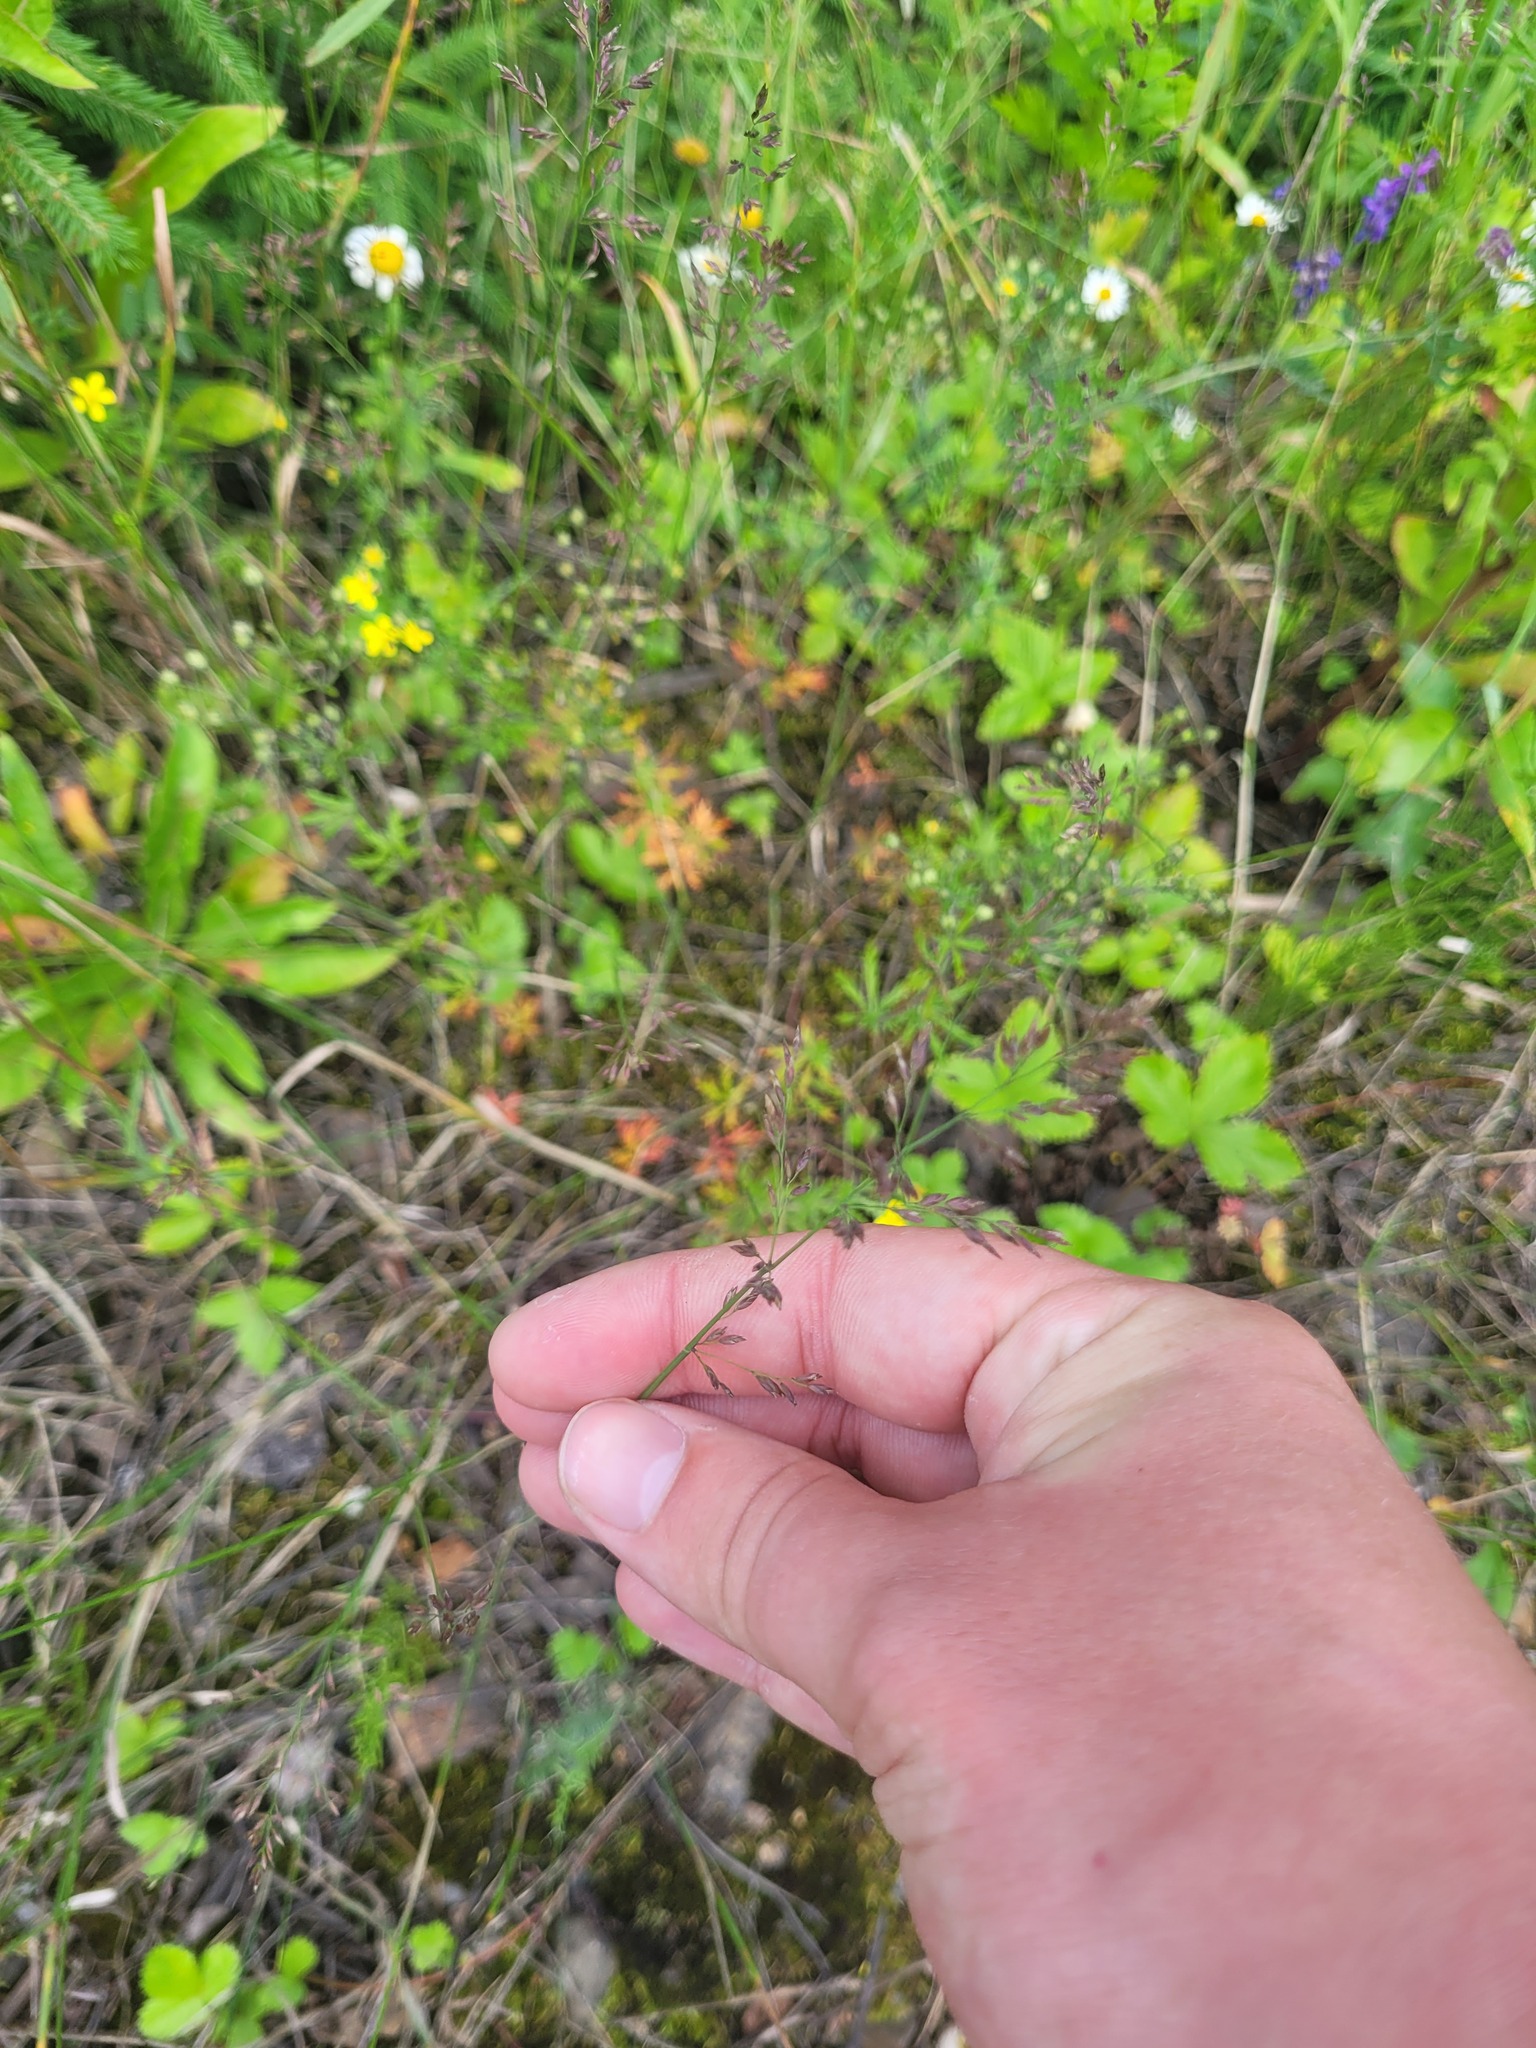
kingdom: Plantae
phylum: Tracheophyta
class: Liliopsida
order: Poales
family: Poaceae
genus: Poa
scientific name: Poa compressa
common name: Canada bluegrass
